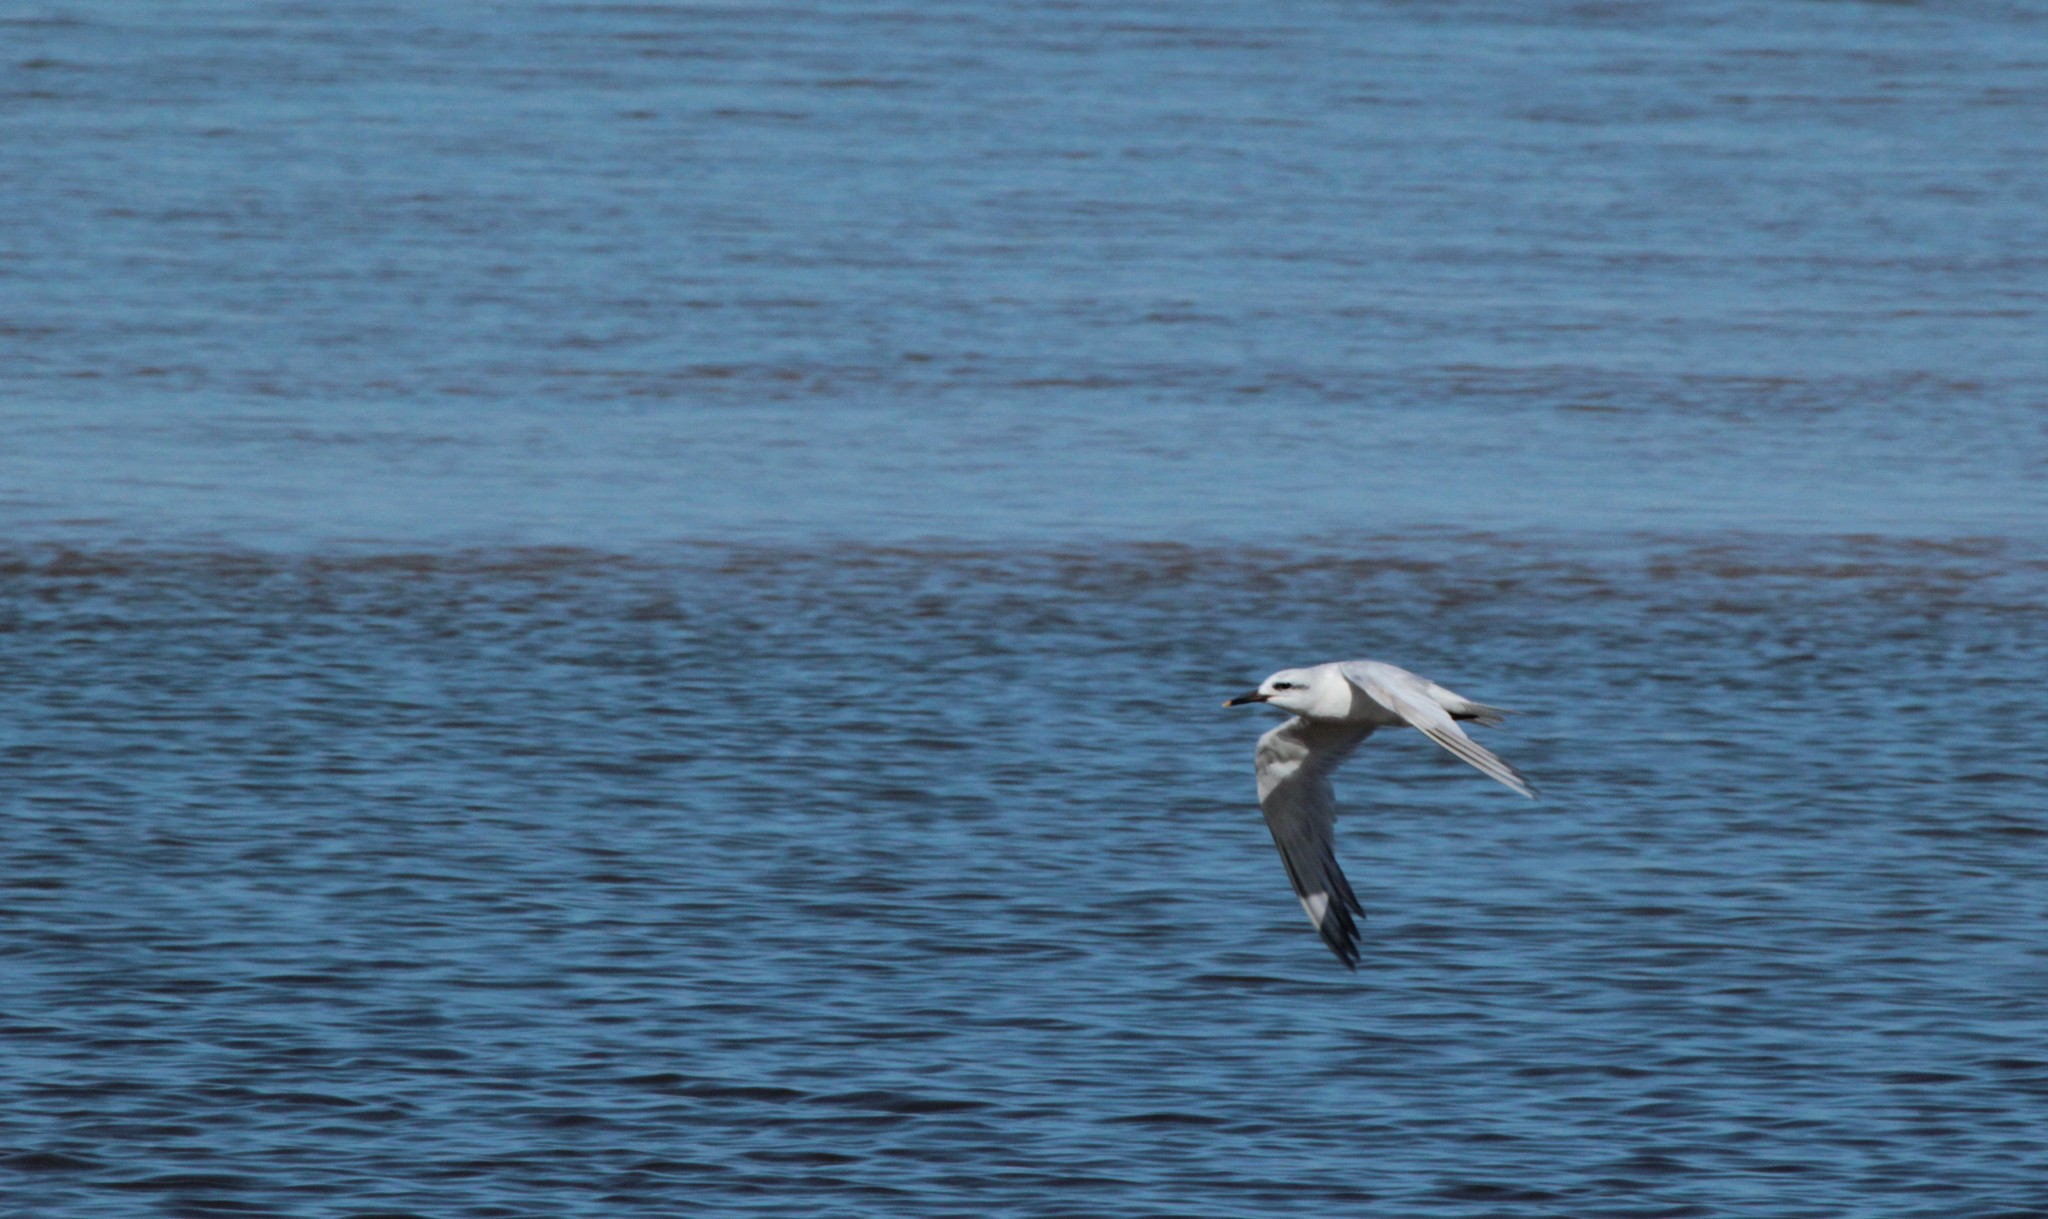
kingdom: Animalia
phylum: Chordata
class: Aves
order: Charadriiformes
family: Laridae
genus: Sterna
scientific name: Sterna trudeaui
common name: Snowy-crowned tern
